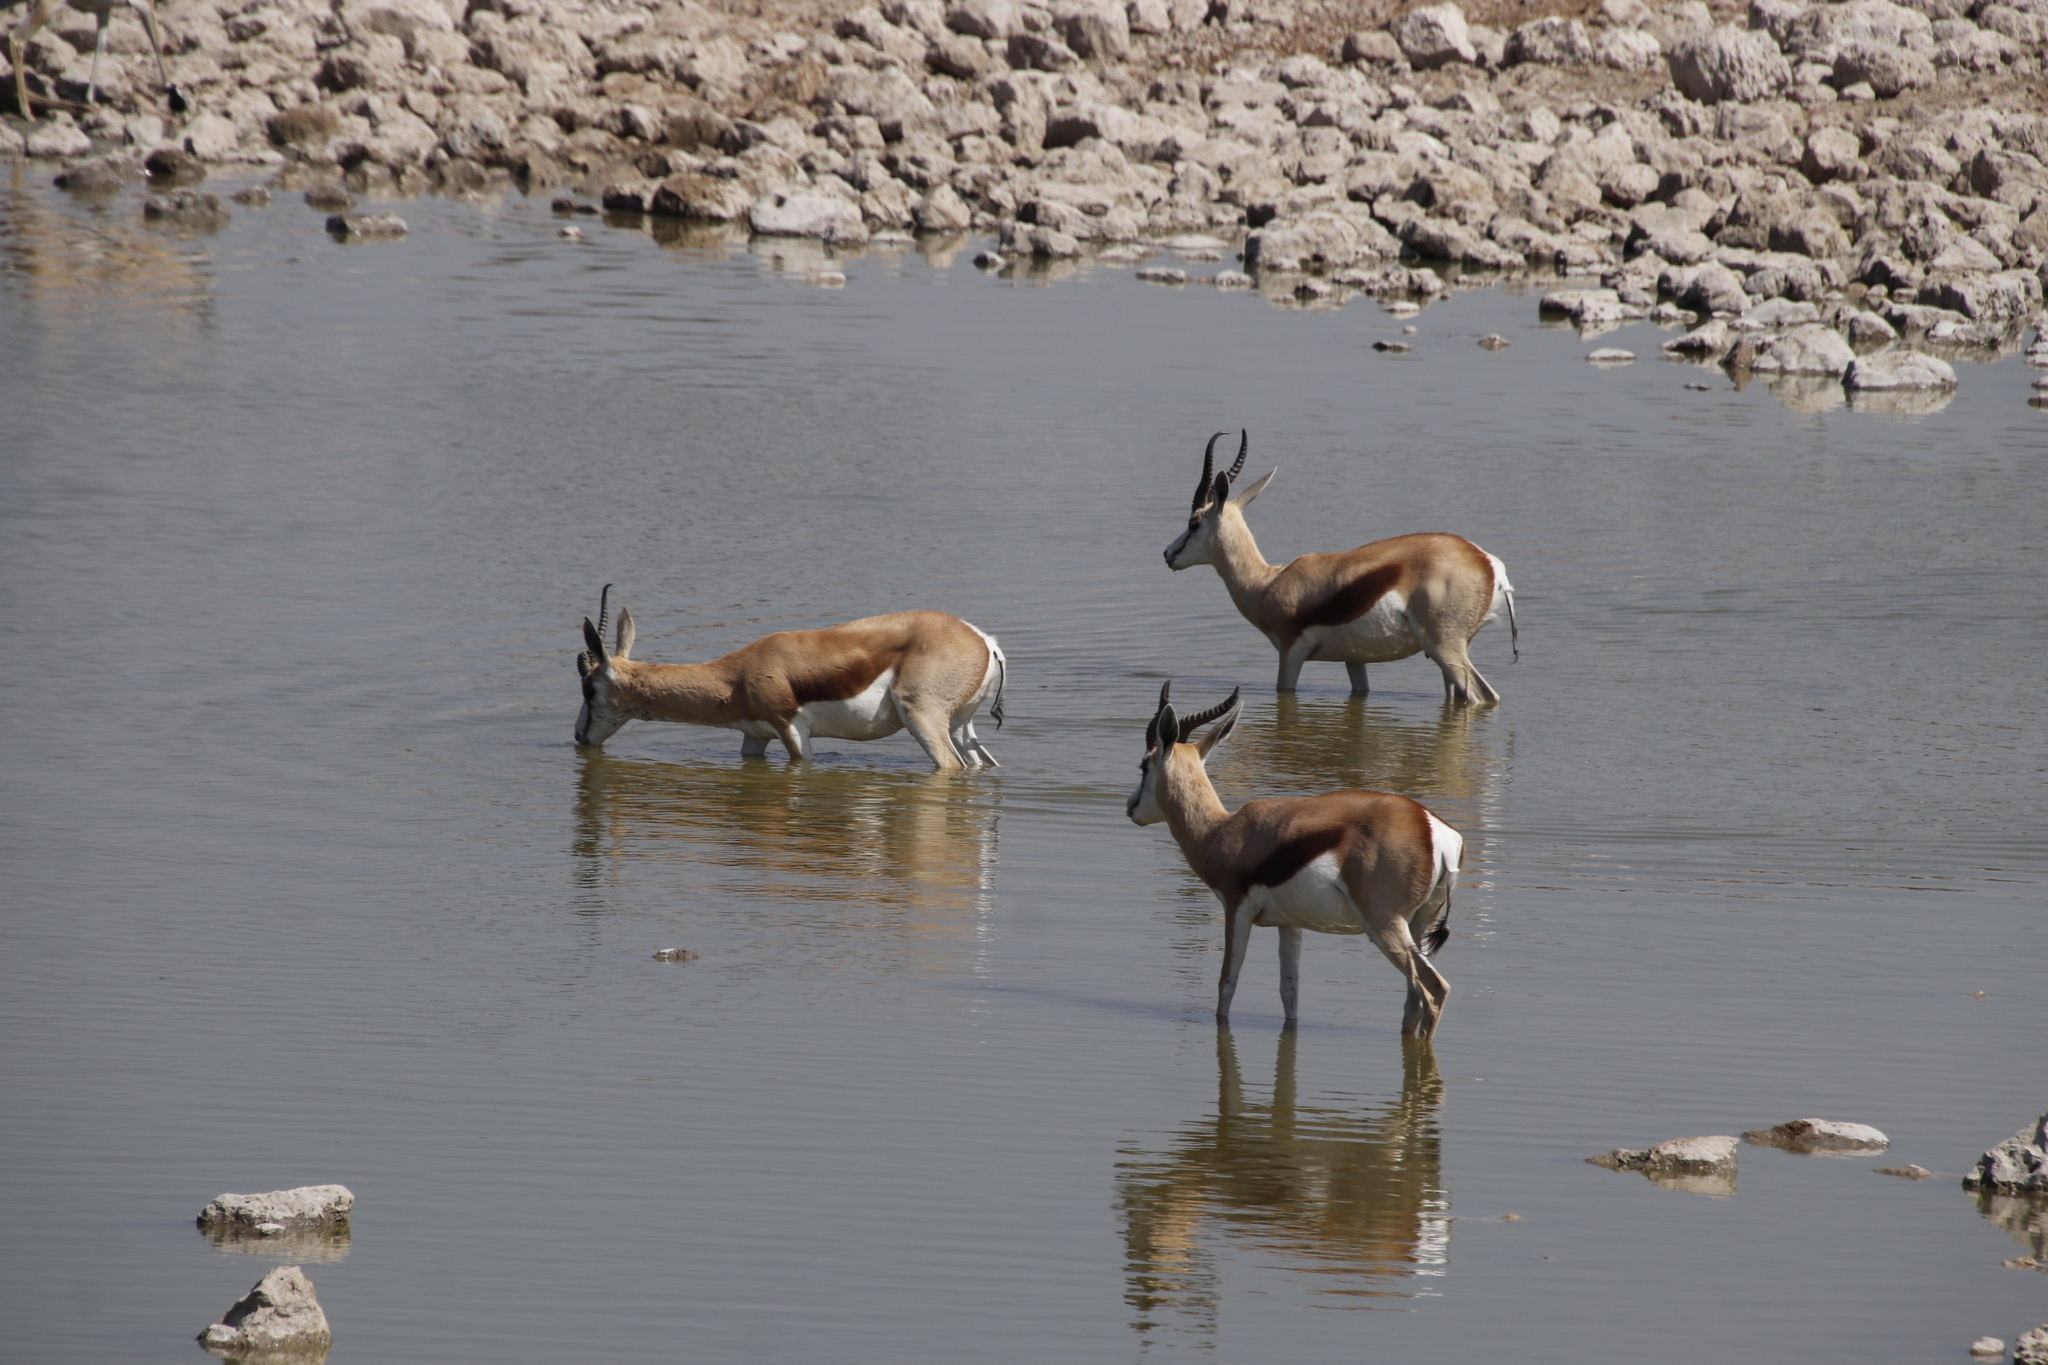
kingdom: Animalia
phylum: Chordata
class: Mammalia
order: Artiodactyla
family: Bovidae
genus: Antidorcas
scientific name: Antidorcas marsupialis
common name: Springbok
